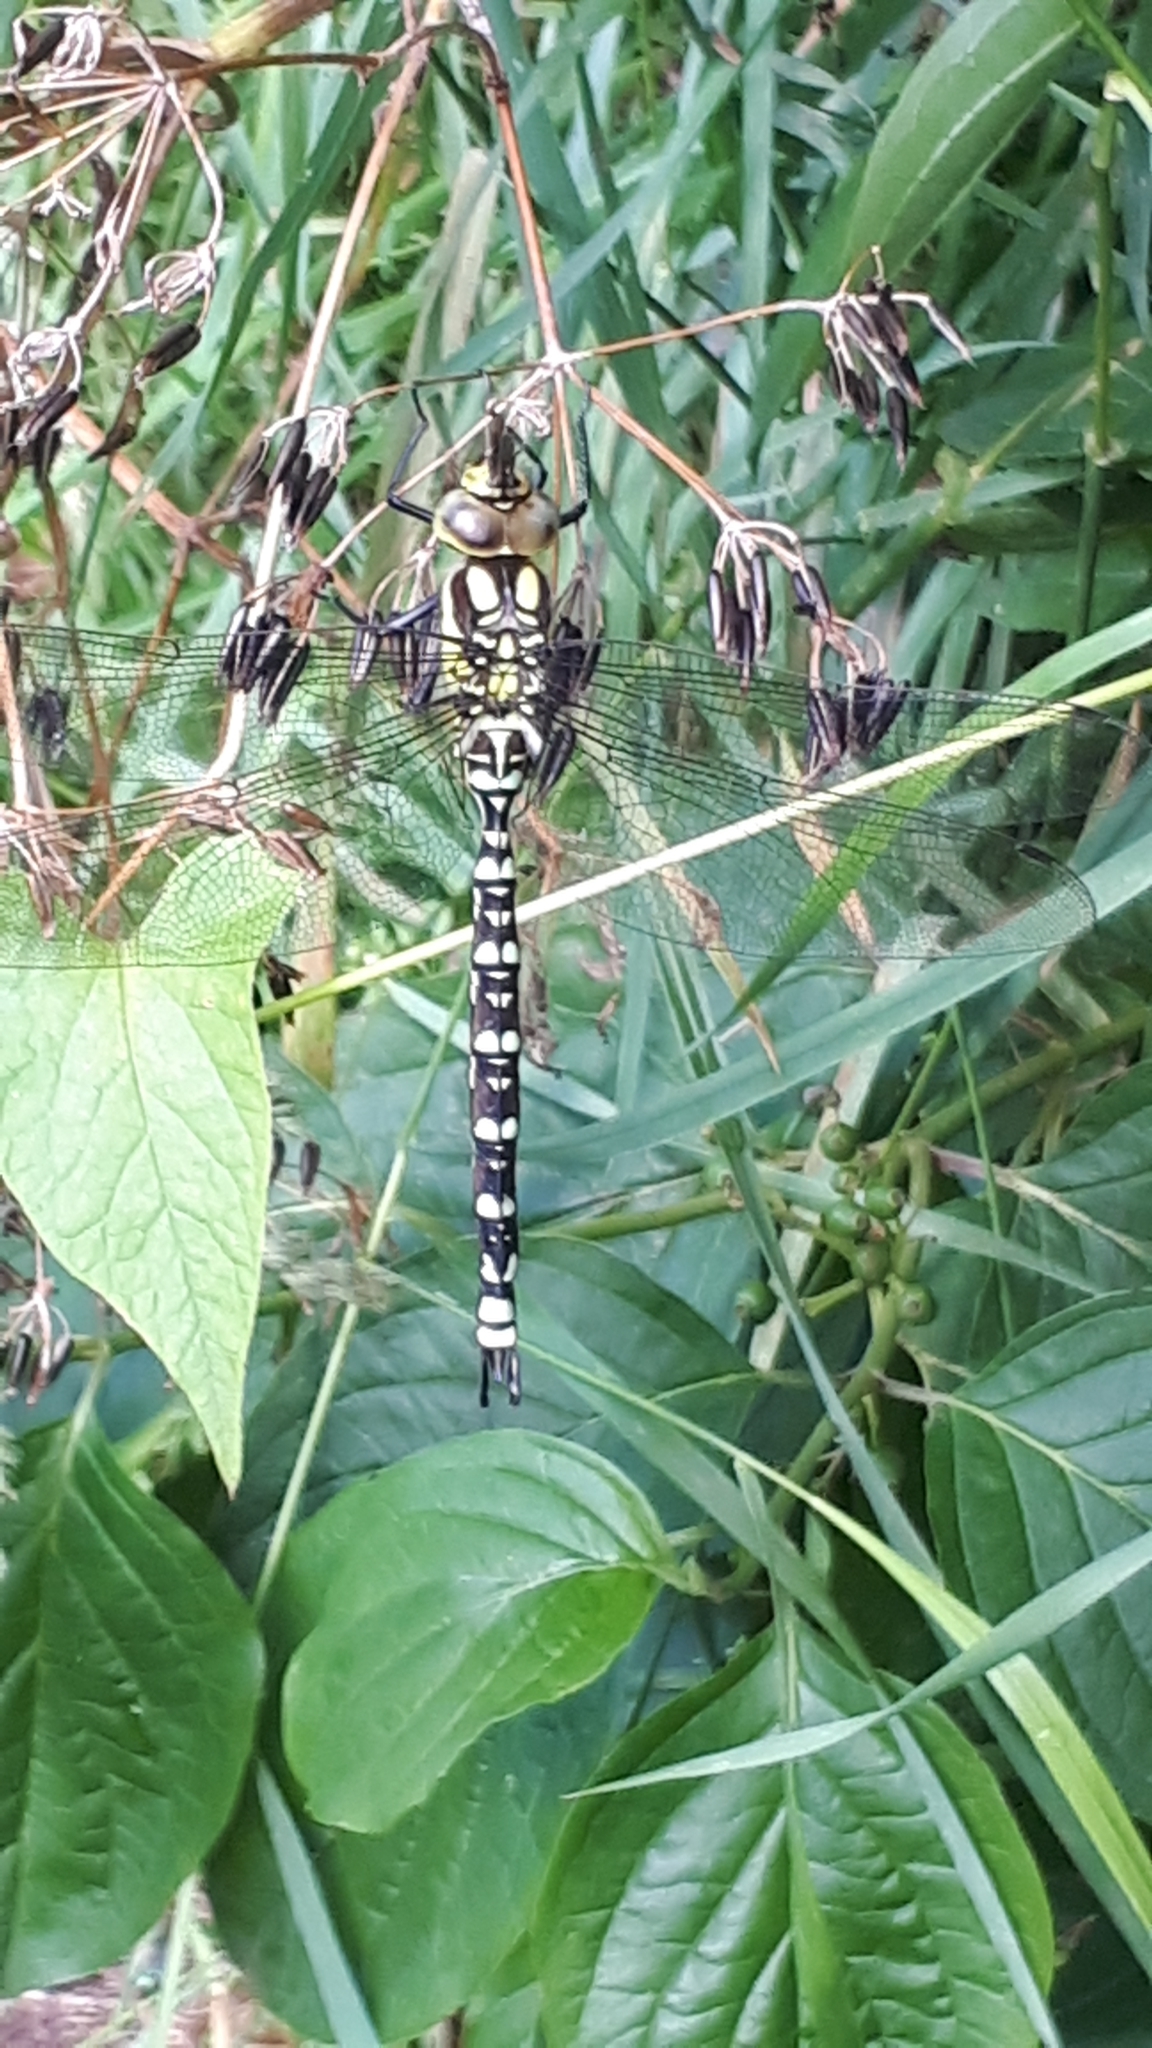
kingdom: Animalia
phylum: Arthropoda
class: Insecta
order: Odonata
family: Aeshnidae
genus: Aeshna
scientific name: Aeshna cyanea
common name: Southern hawker
